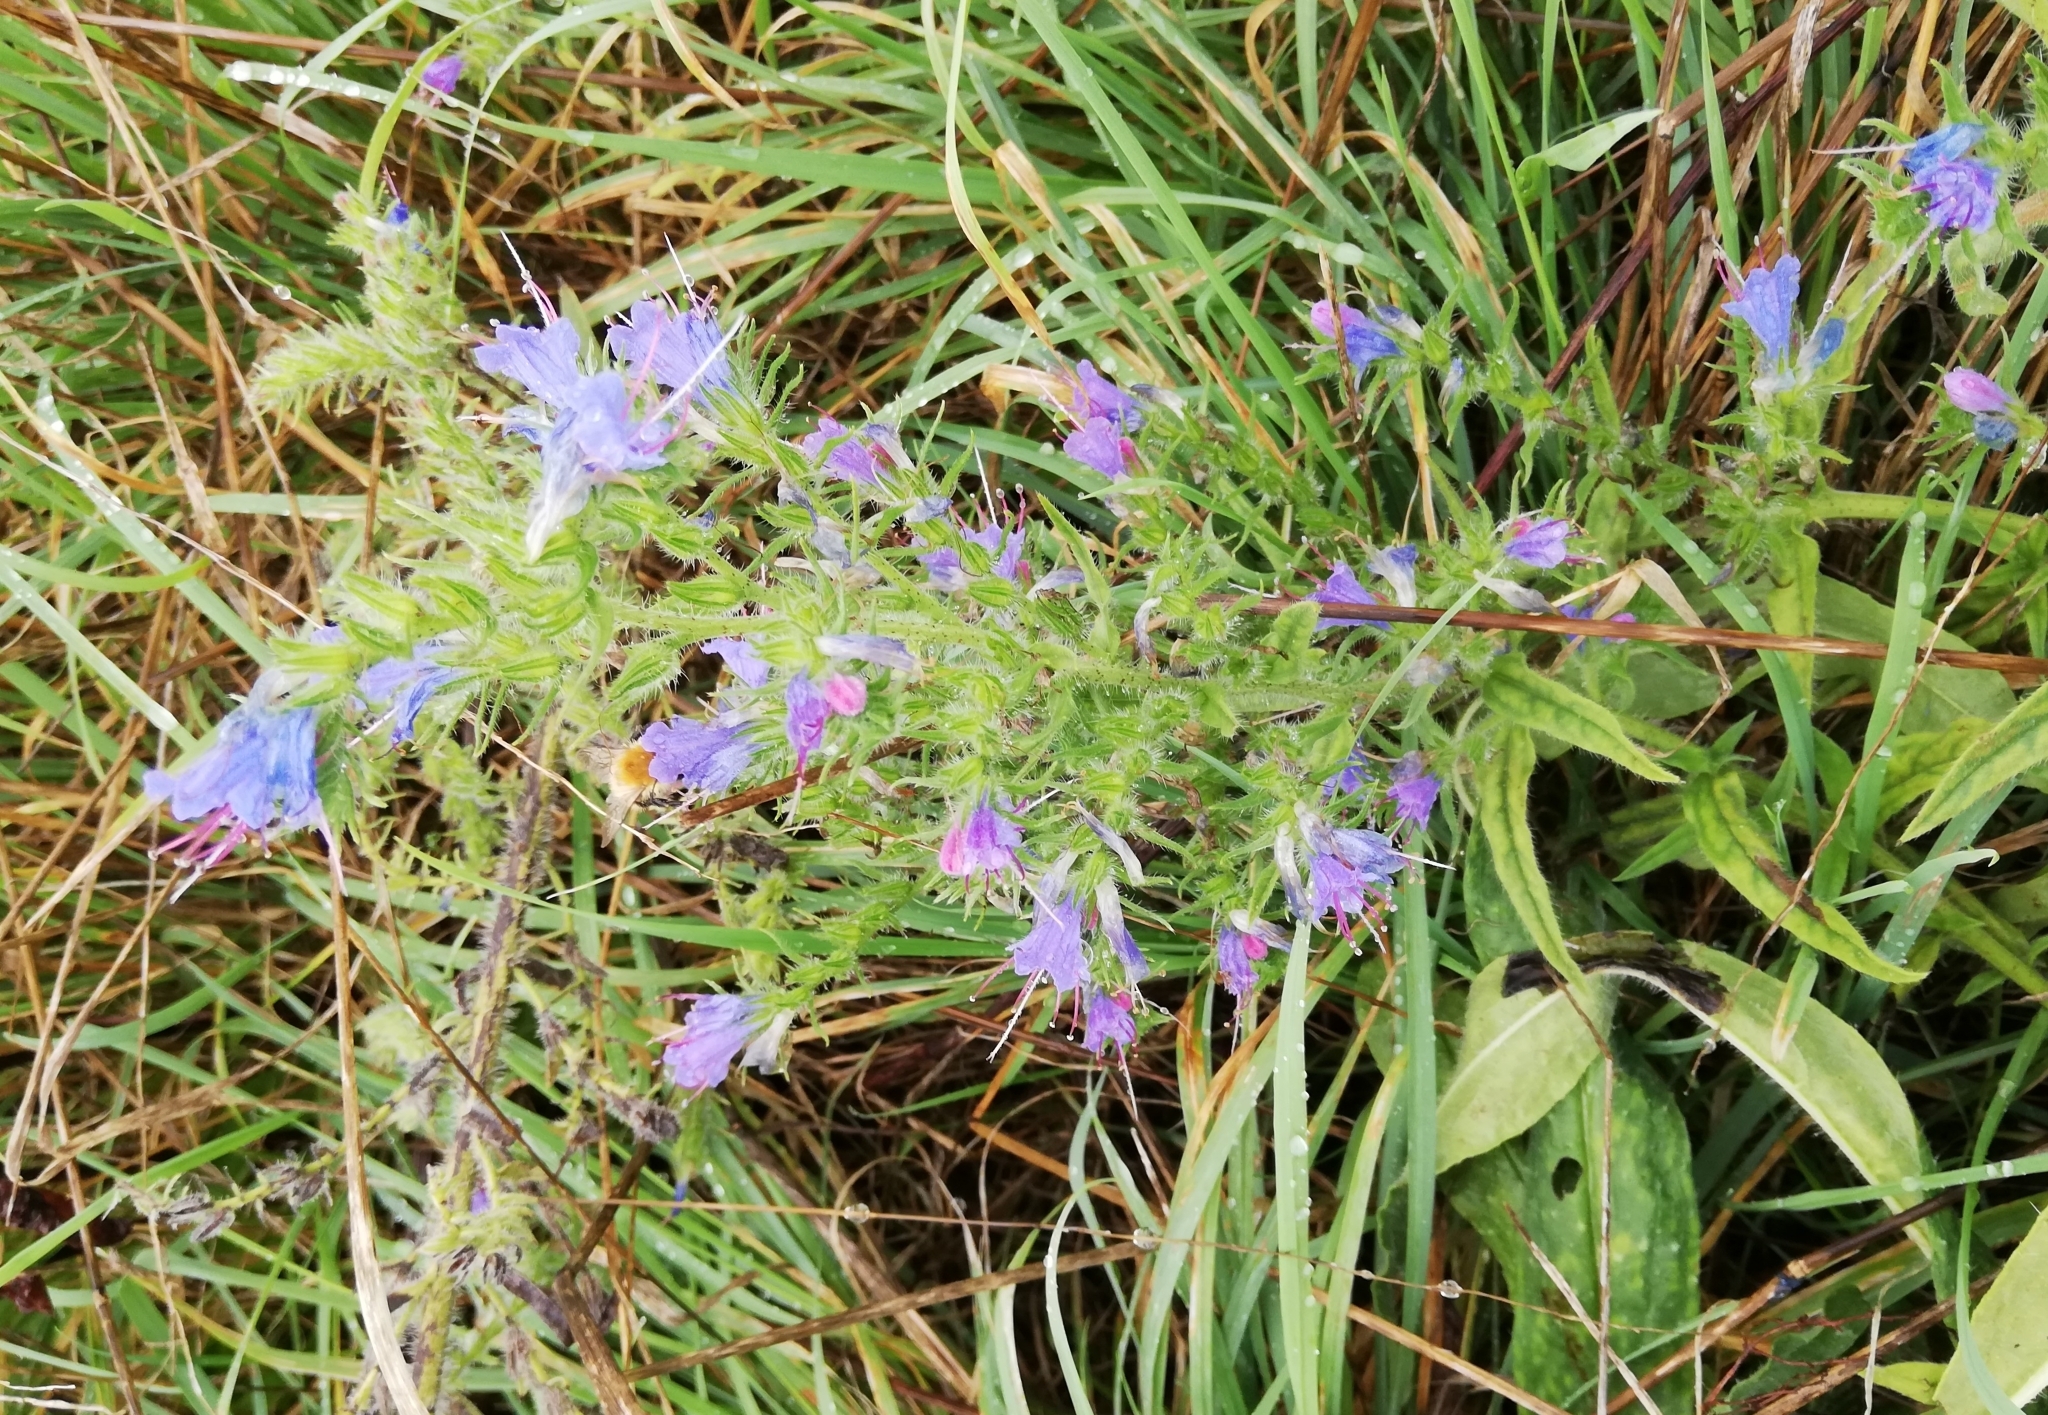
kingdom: Plantae
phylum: Tracheophyta
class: Magnoliopsida
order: Boraginales
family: Boraginaceae
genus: Echium
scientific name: Echium vulgare
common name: Common viper's bugloss
